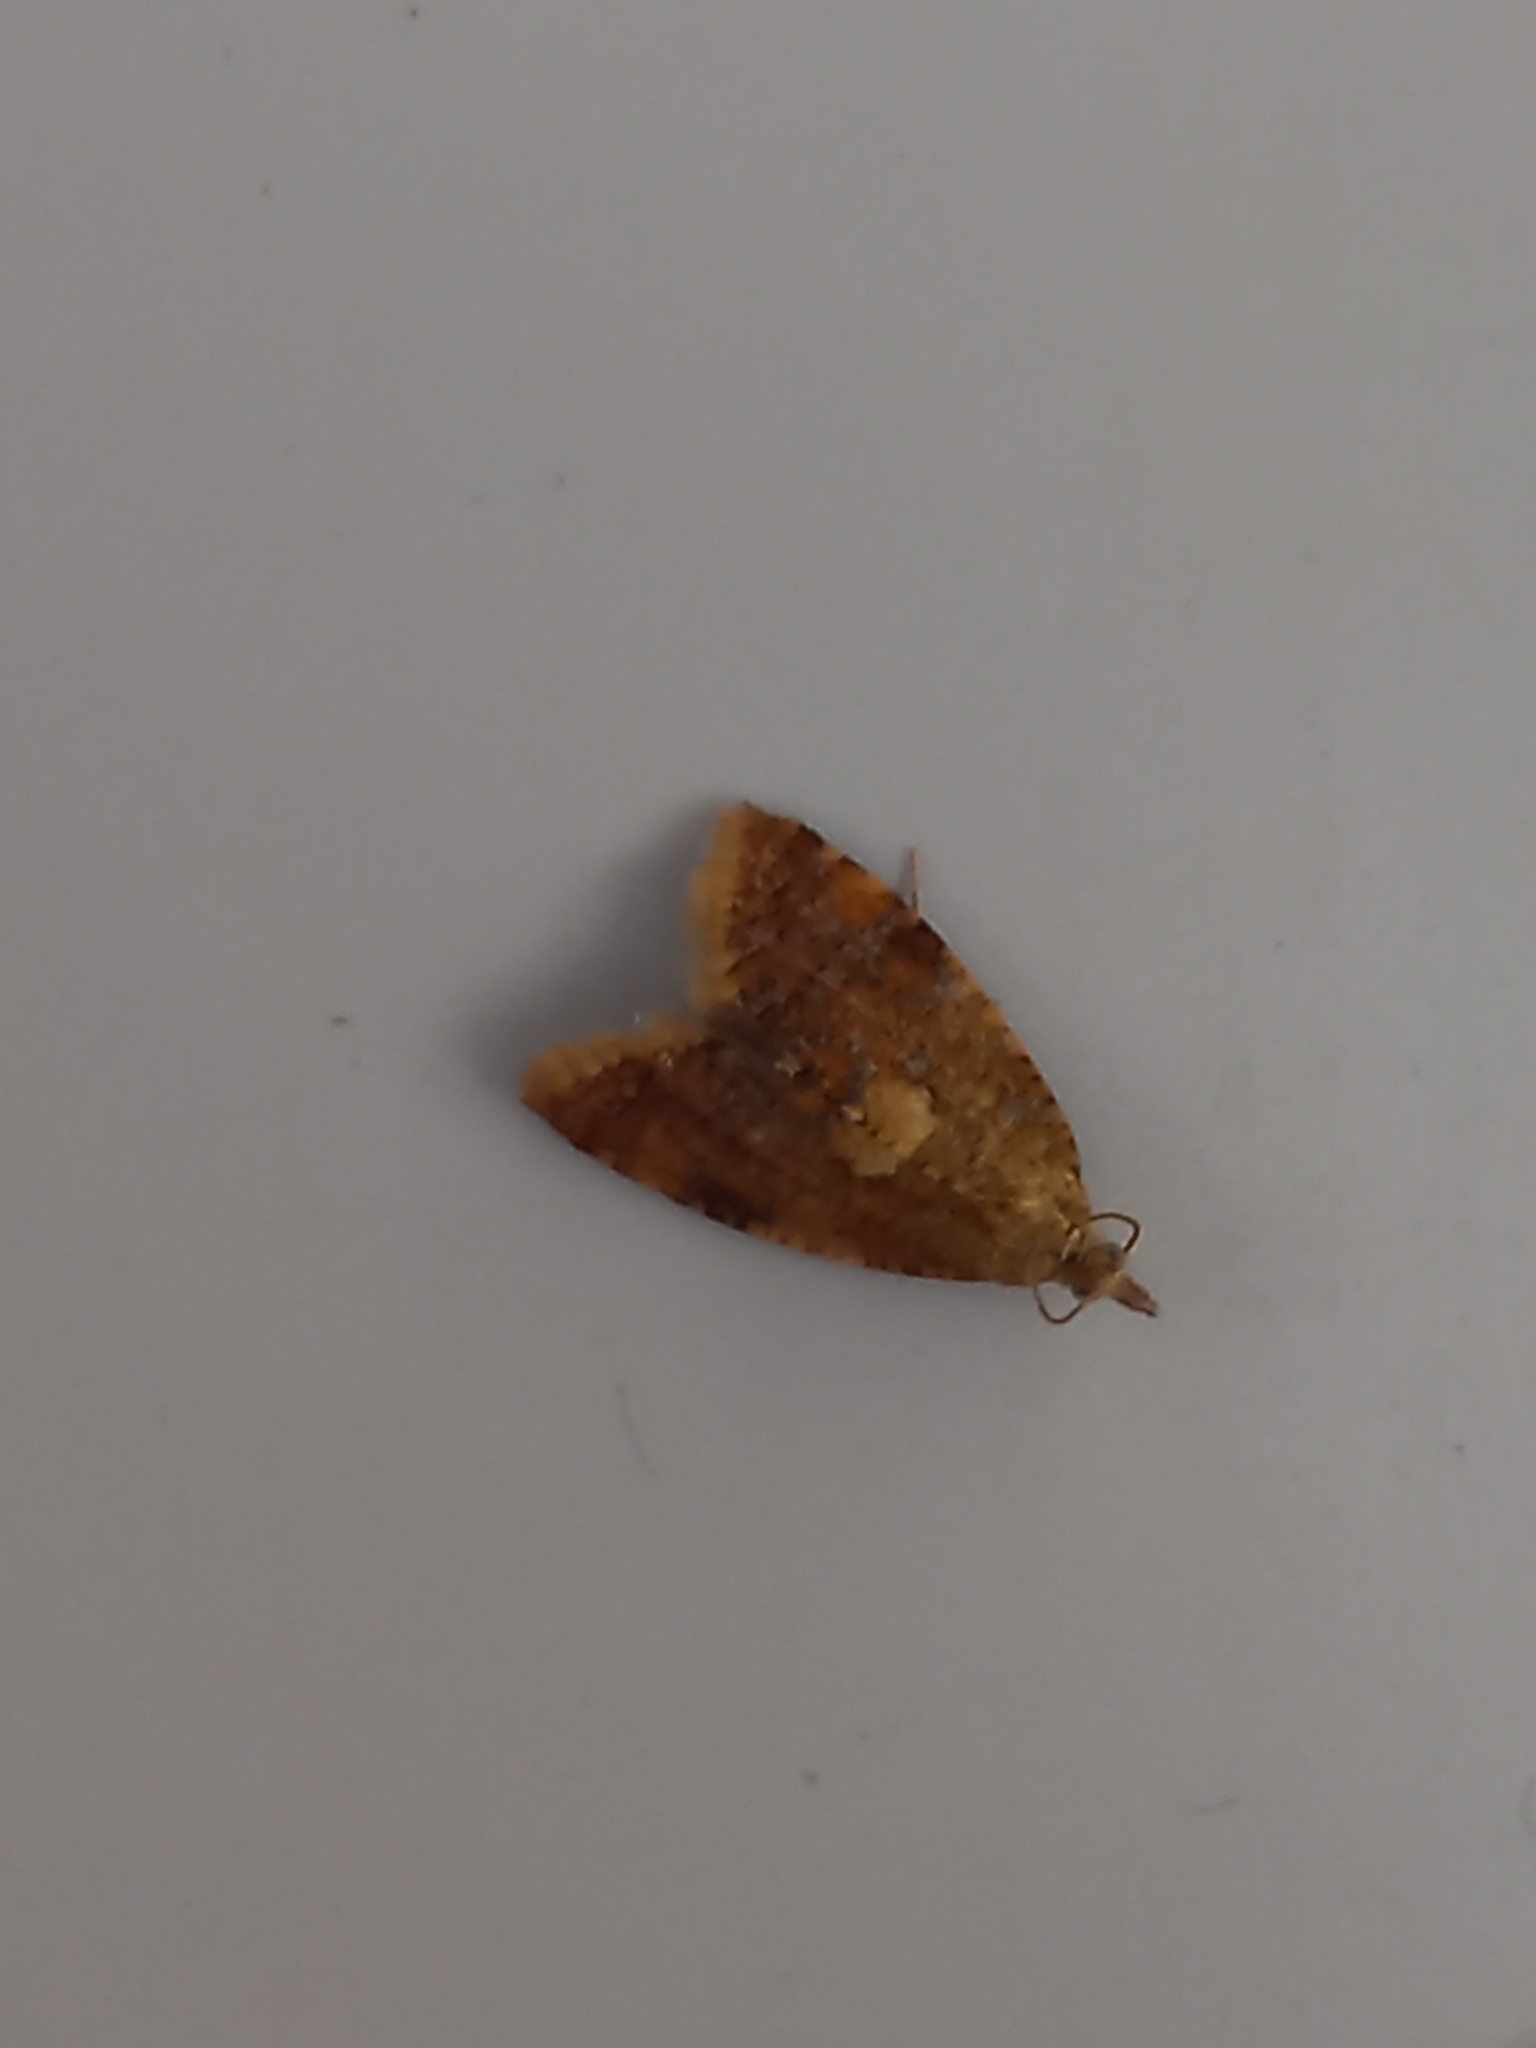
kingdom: Animalia
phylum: Arthropoda
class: Insecta
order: Lepidoptera
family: Tortricidae
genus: Pseudargyrotoza
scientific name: Pseudargyrotoza conwagana
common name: Yellow-spot twist
